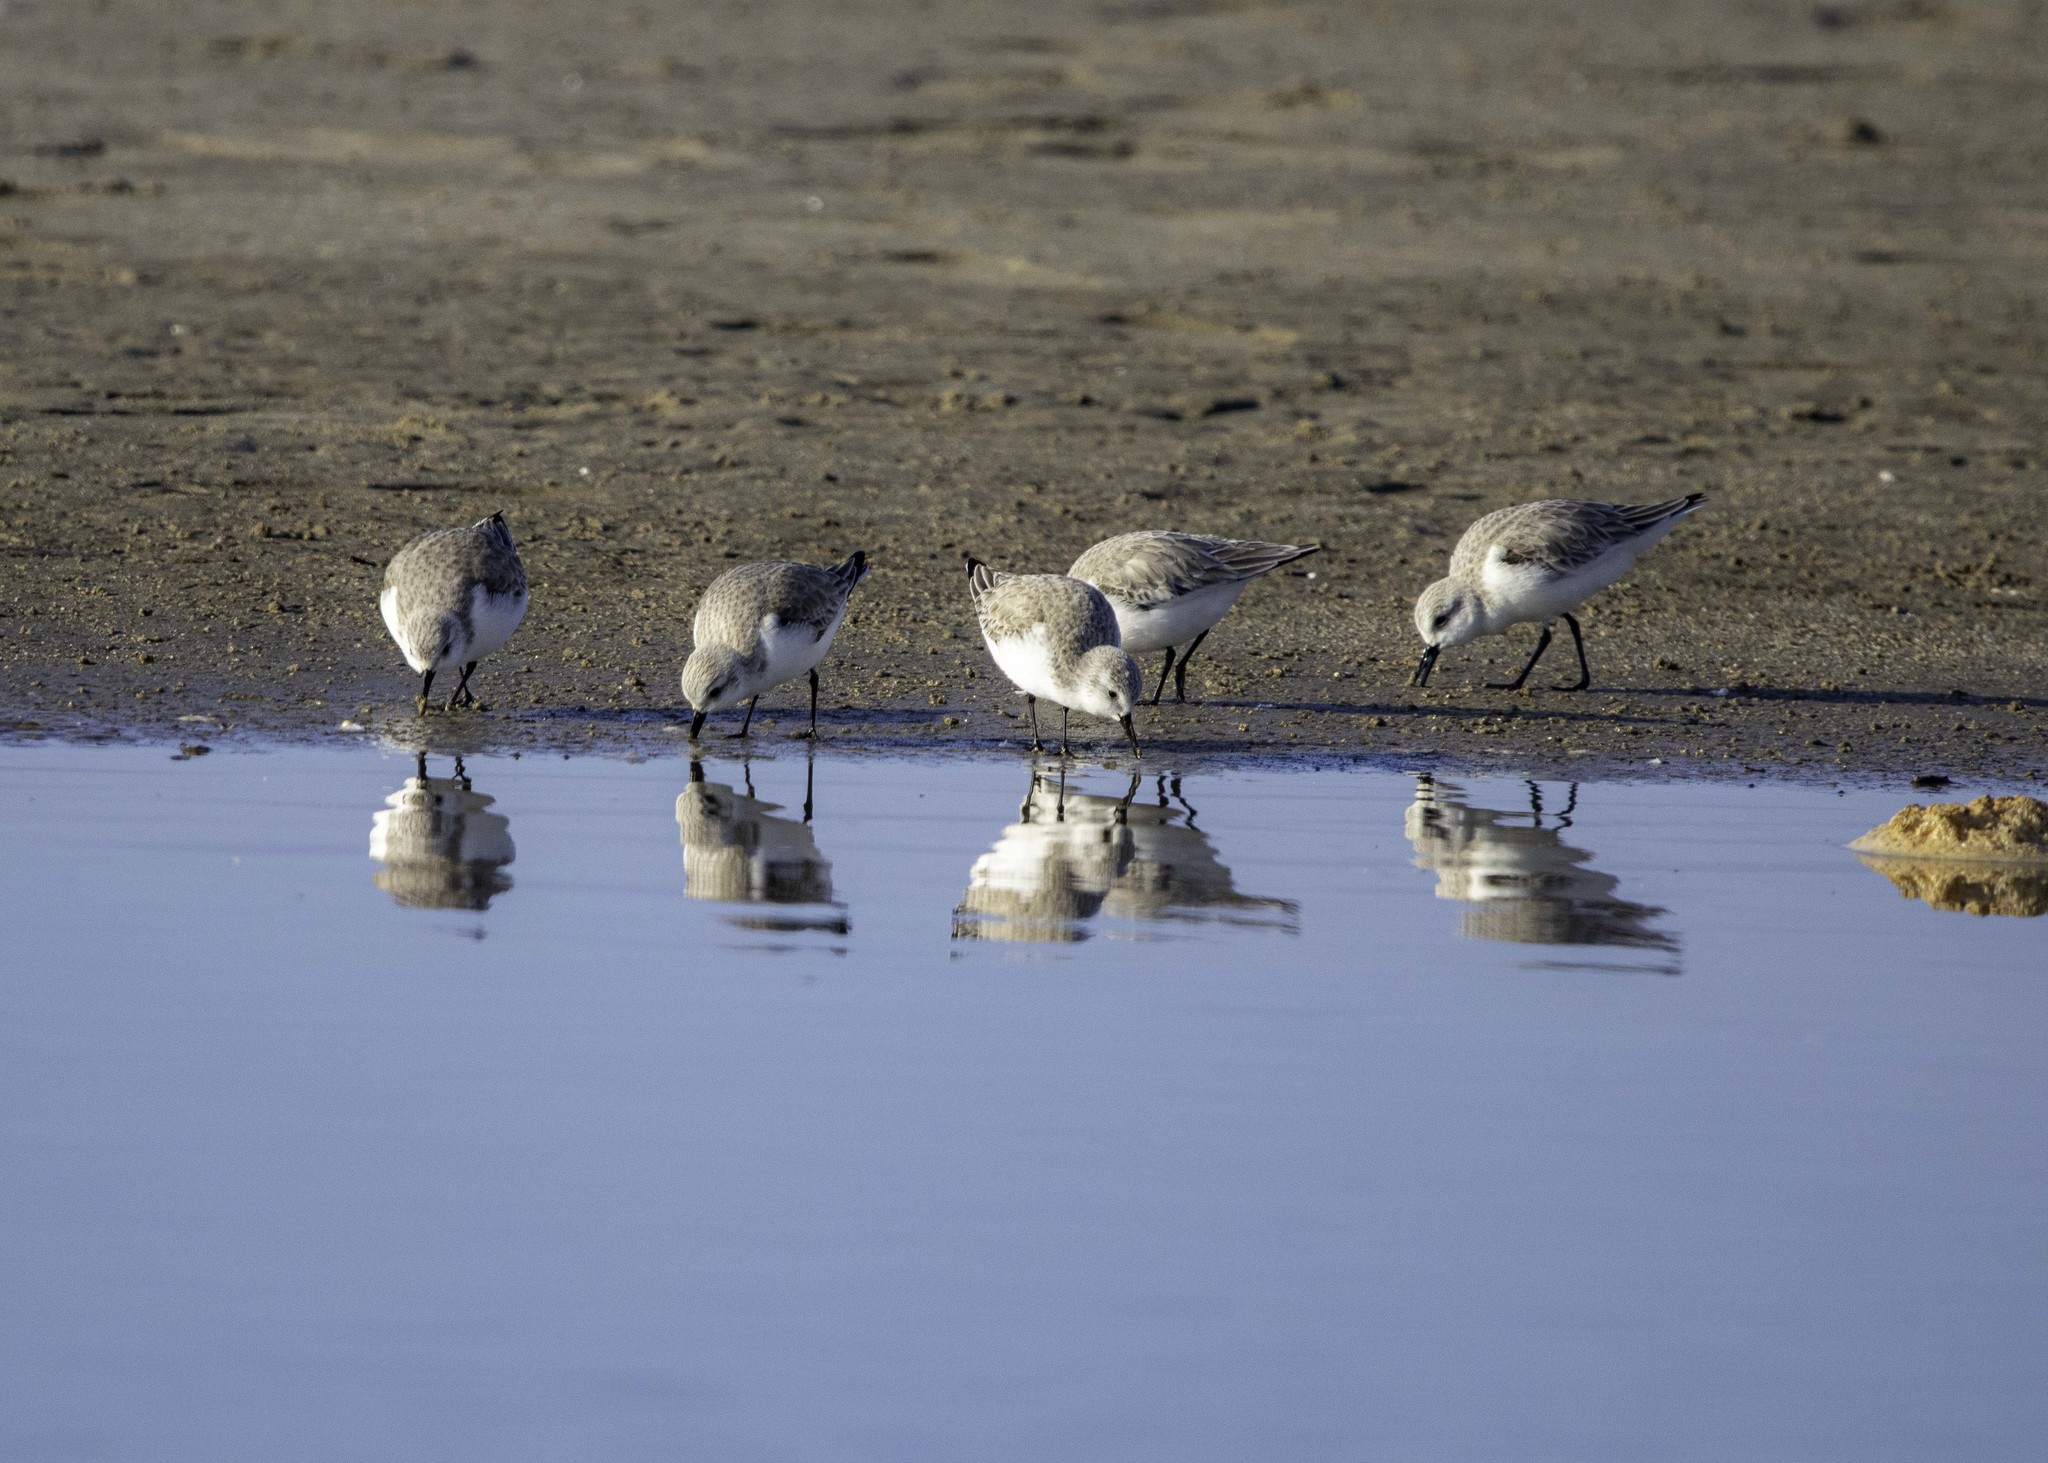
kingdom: Animalia
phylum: Chordata
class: Aves
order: Charadriiformes
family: Scolopacidae
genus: Calidris
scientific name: Calidris alba
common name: Sanderling
